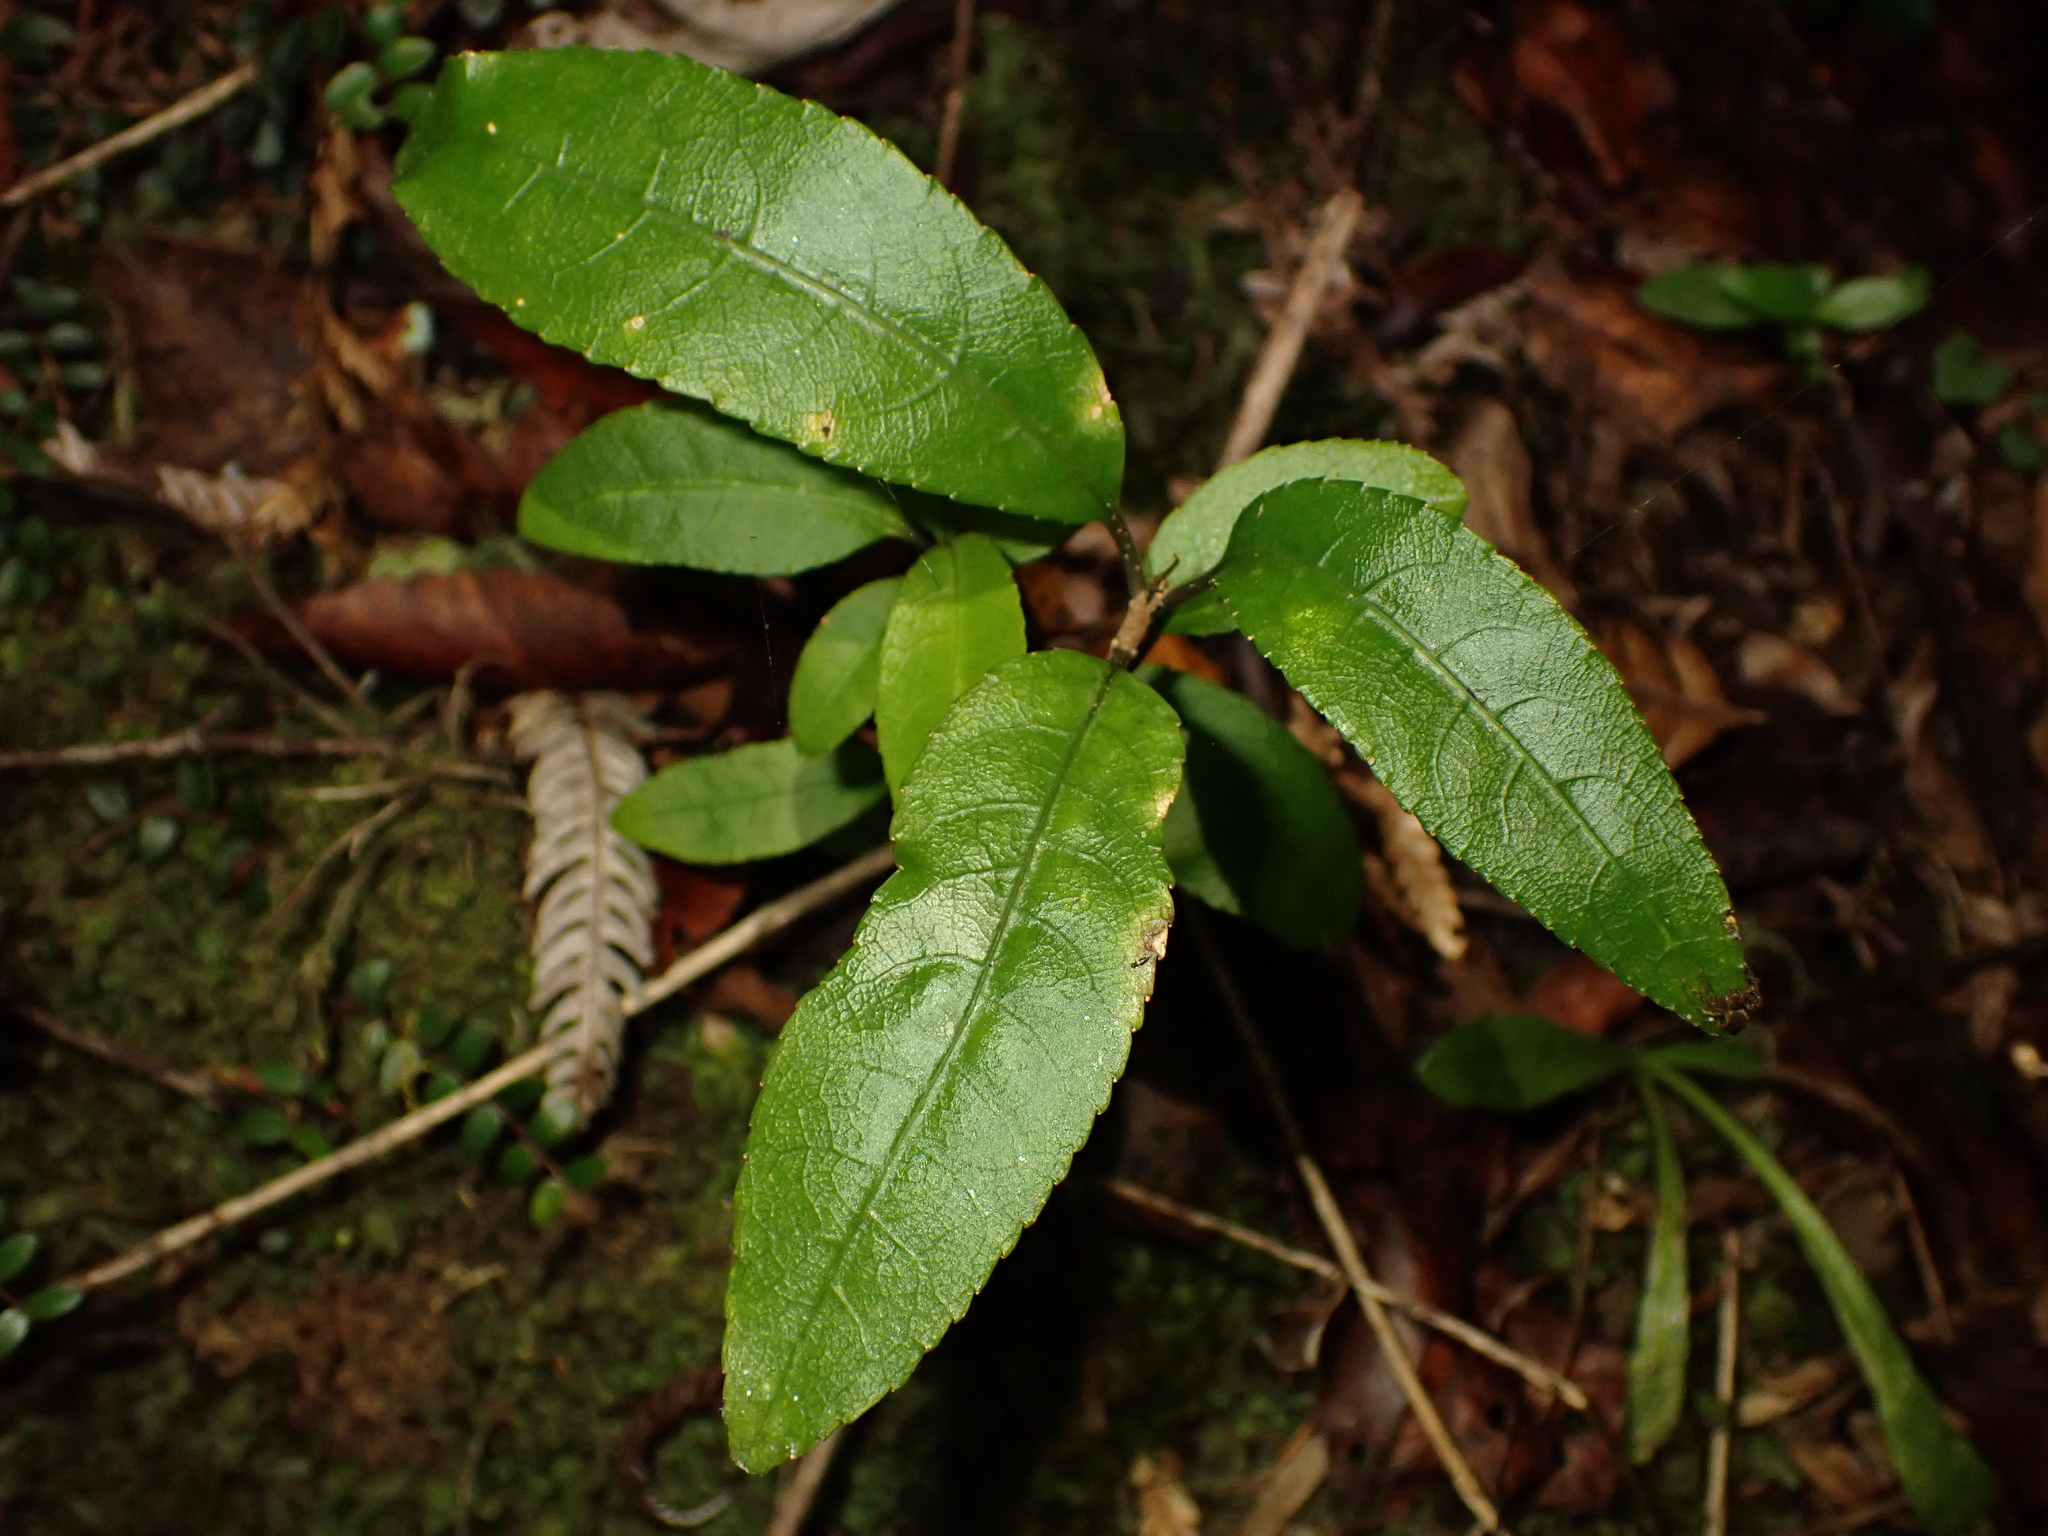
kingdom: Plantae
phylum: Tracheophyta
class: Magnoliopsida
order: Malpighiales
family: Violaceae
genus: Melicytus
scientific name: Melicytus ramiflorus
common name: Mahoe
